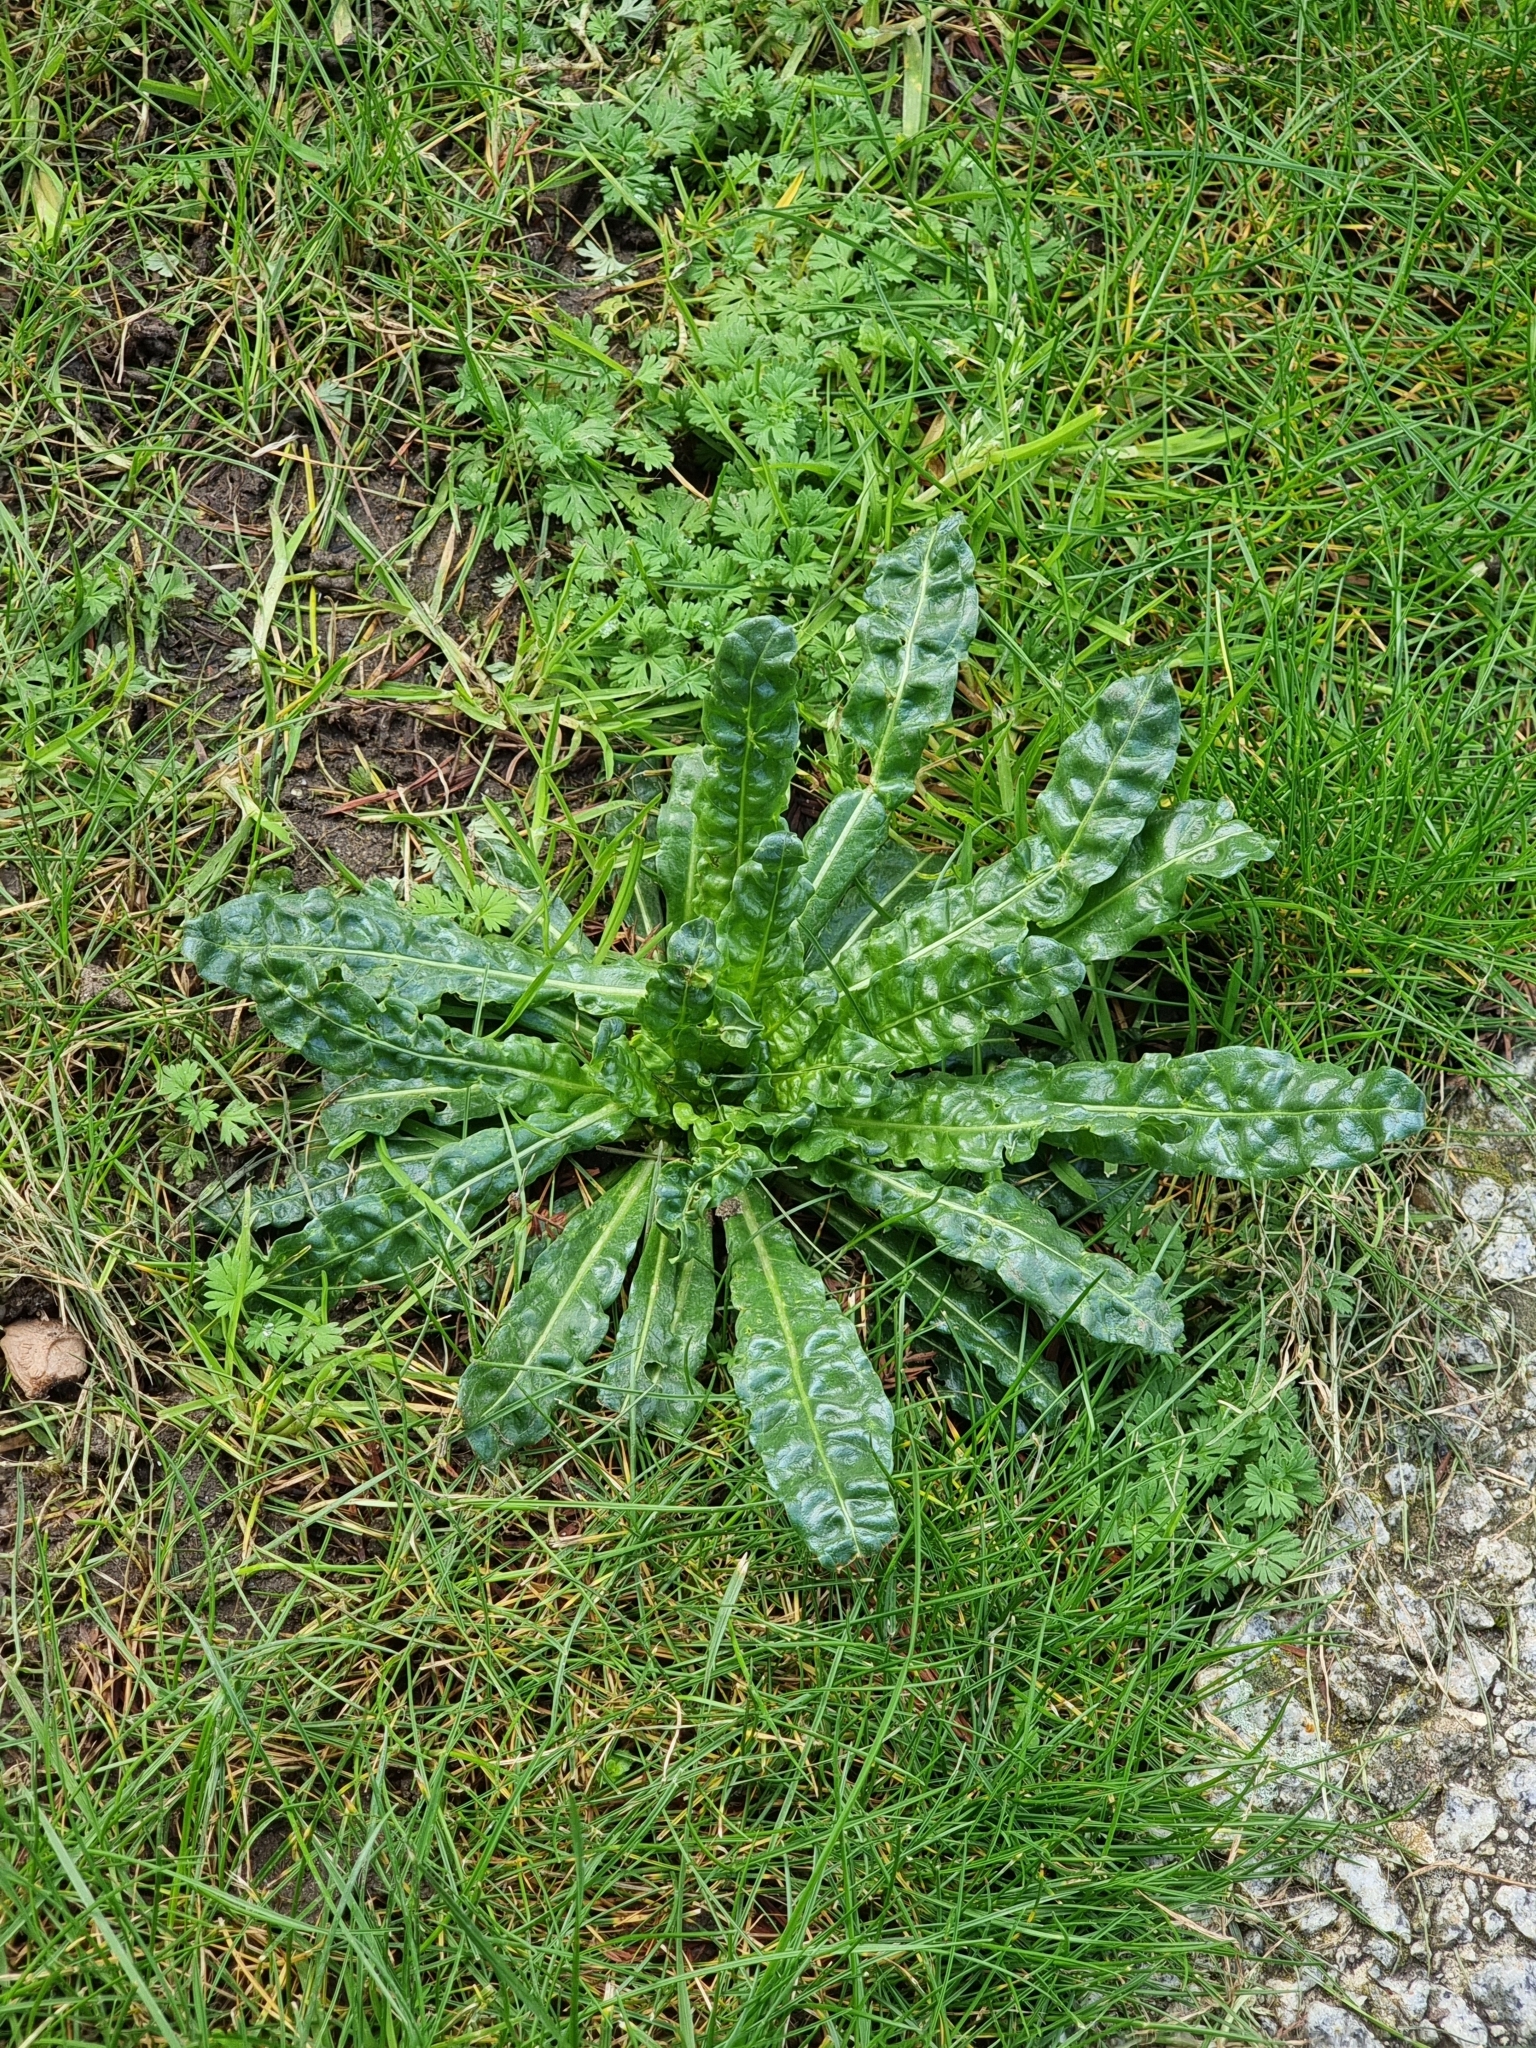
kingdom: Plantae
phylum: Tracheophyta
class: Magnoliopsida
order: Brassicales
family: Resedaceae
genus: Reseda
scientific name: Reseda luteola
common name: Weld
